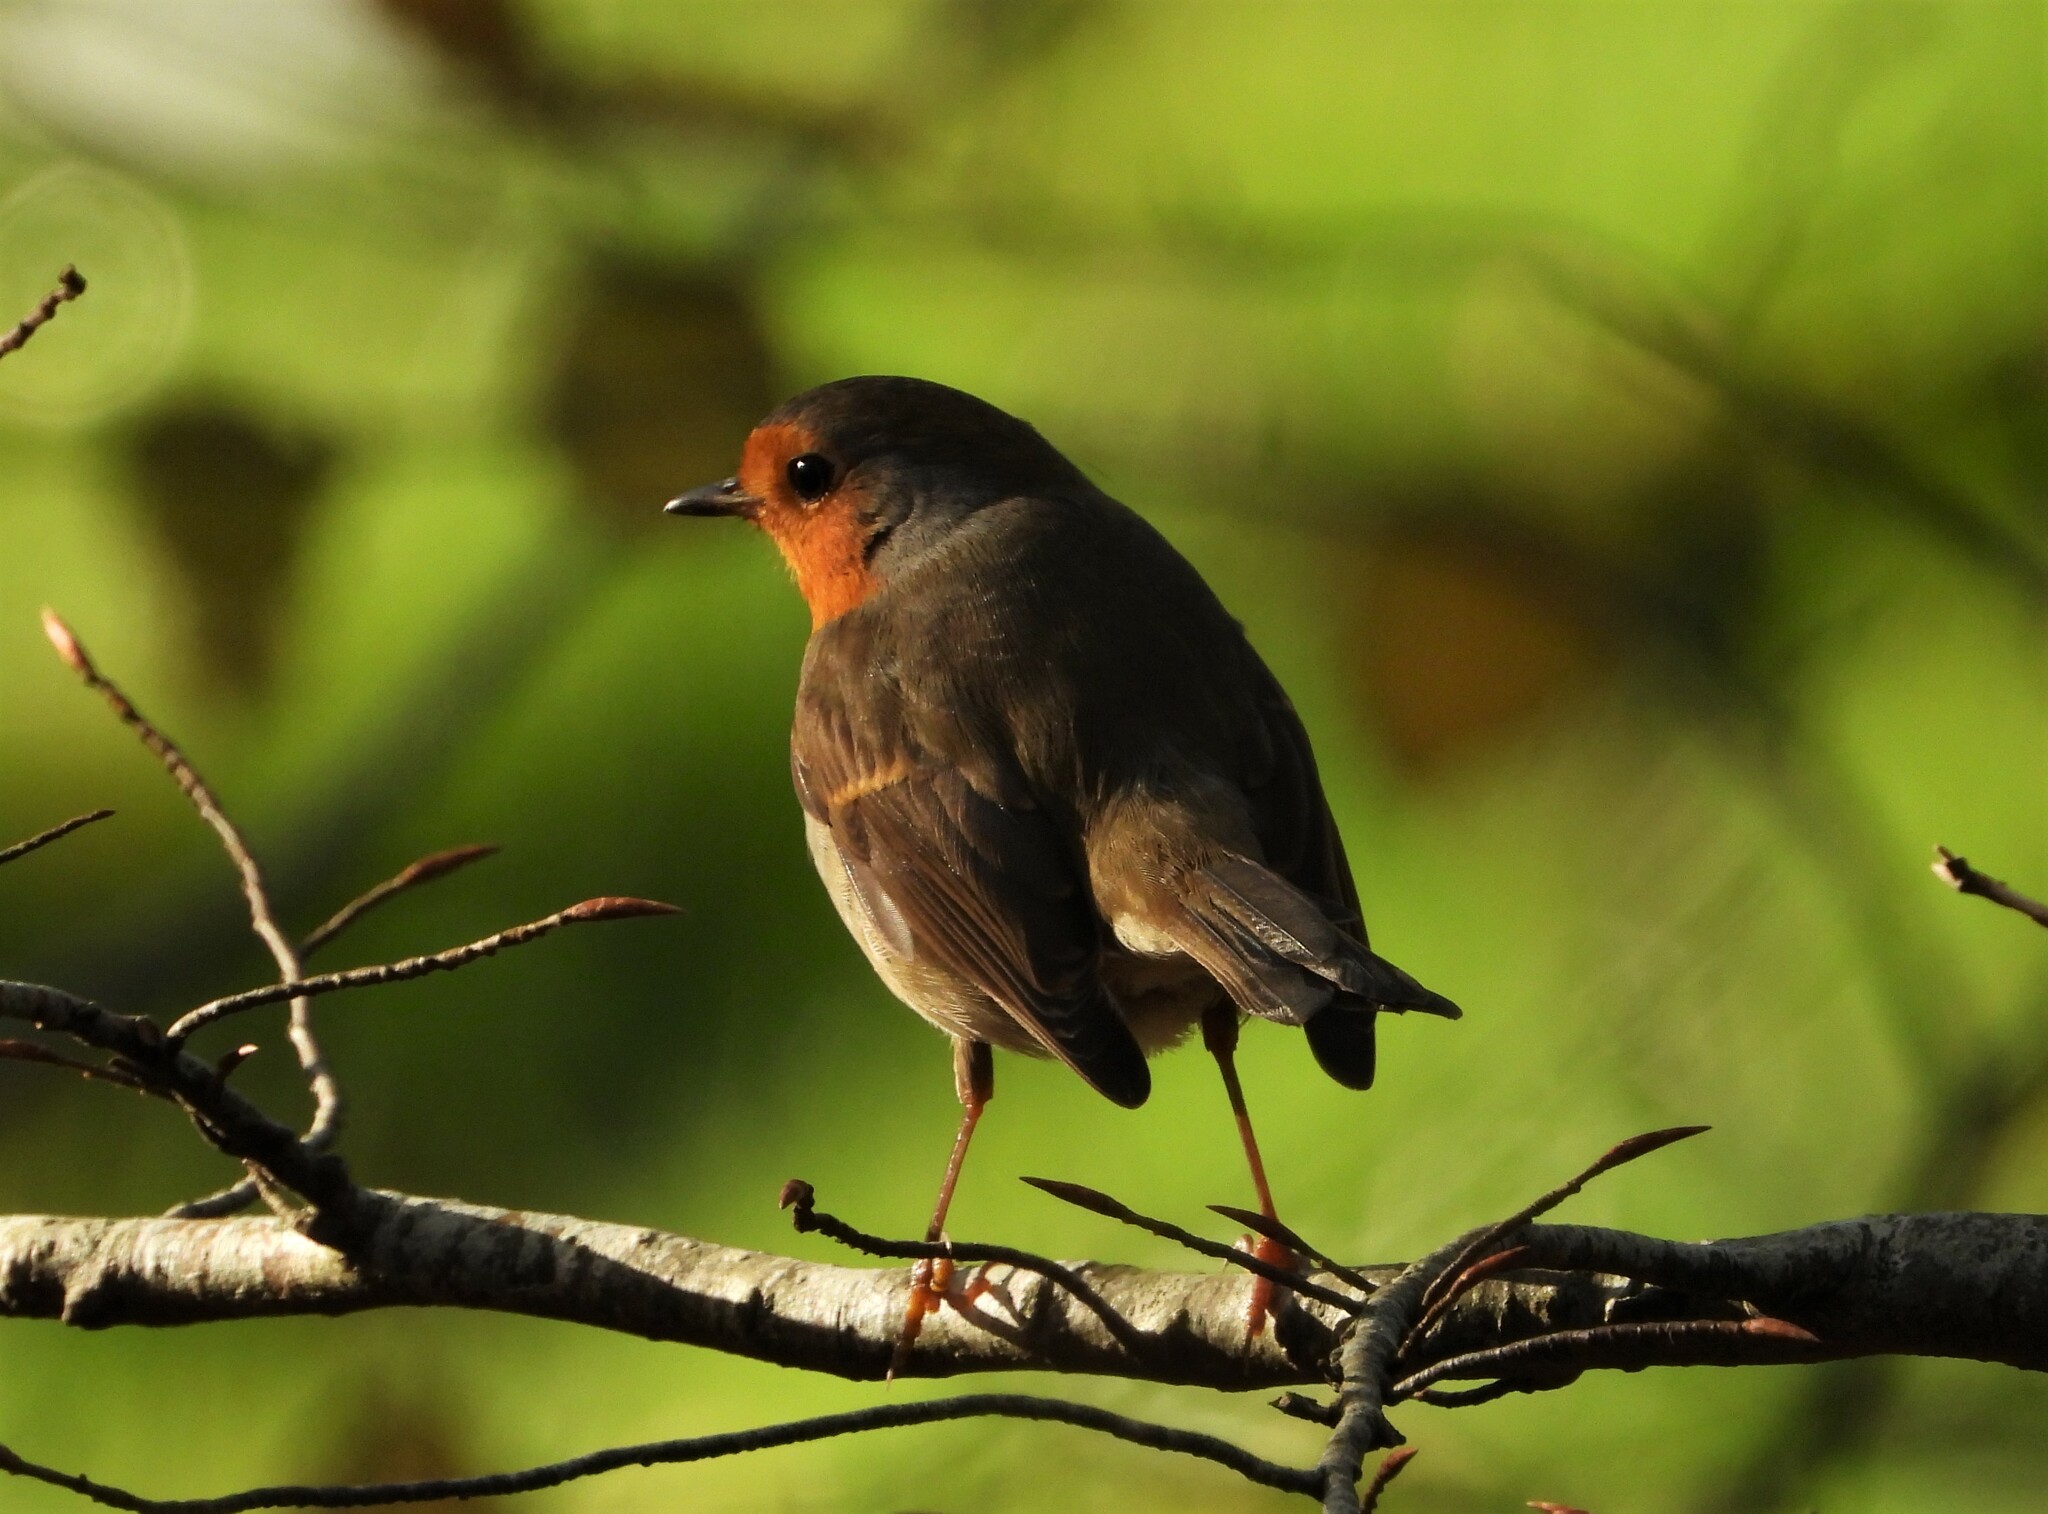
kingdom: Animalia
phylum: Chordata
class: Aves
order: Passeriformes
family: Muscicapidae
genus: Erithacus
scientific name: Erithacus rubecula
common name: European robin
